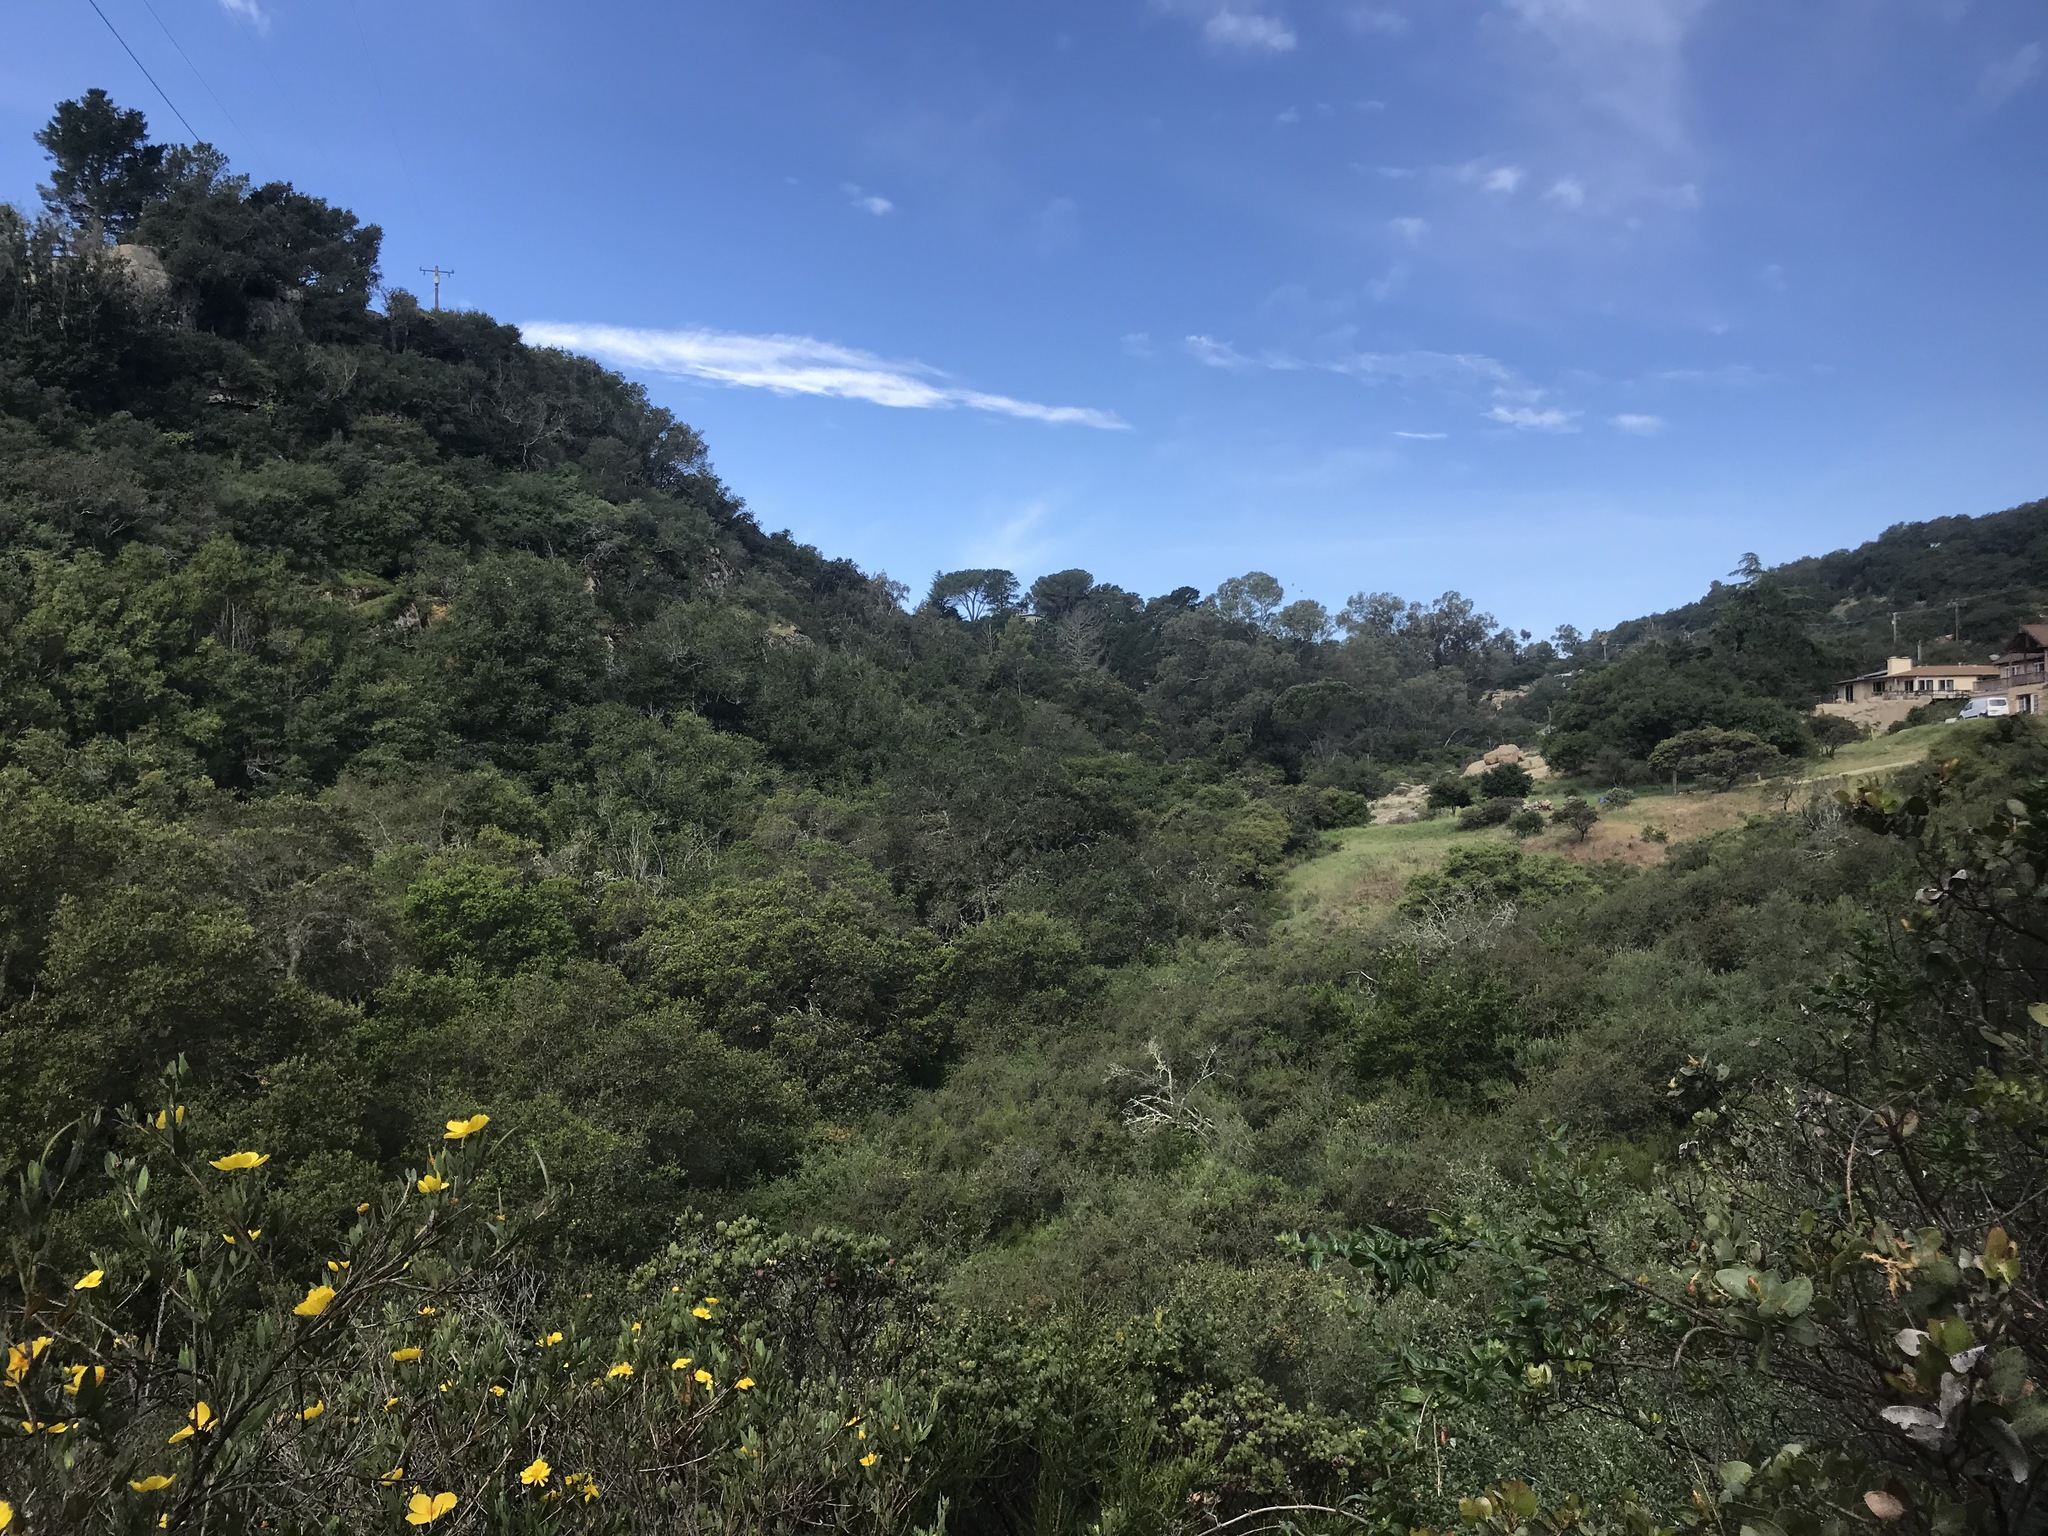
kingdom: Plantae
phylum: Tracheophyta
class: Magnoliopsida
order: Ranunculales
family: Papaveraceae
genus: Dendromecon
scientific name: Dendromecon rigida
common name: Tree poppy
